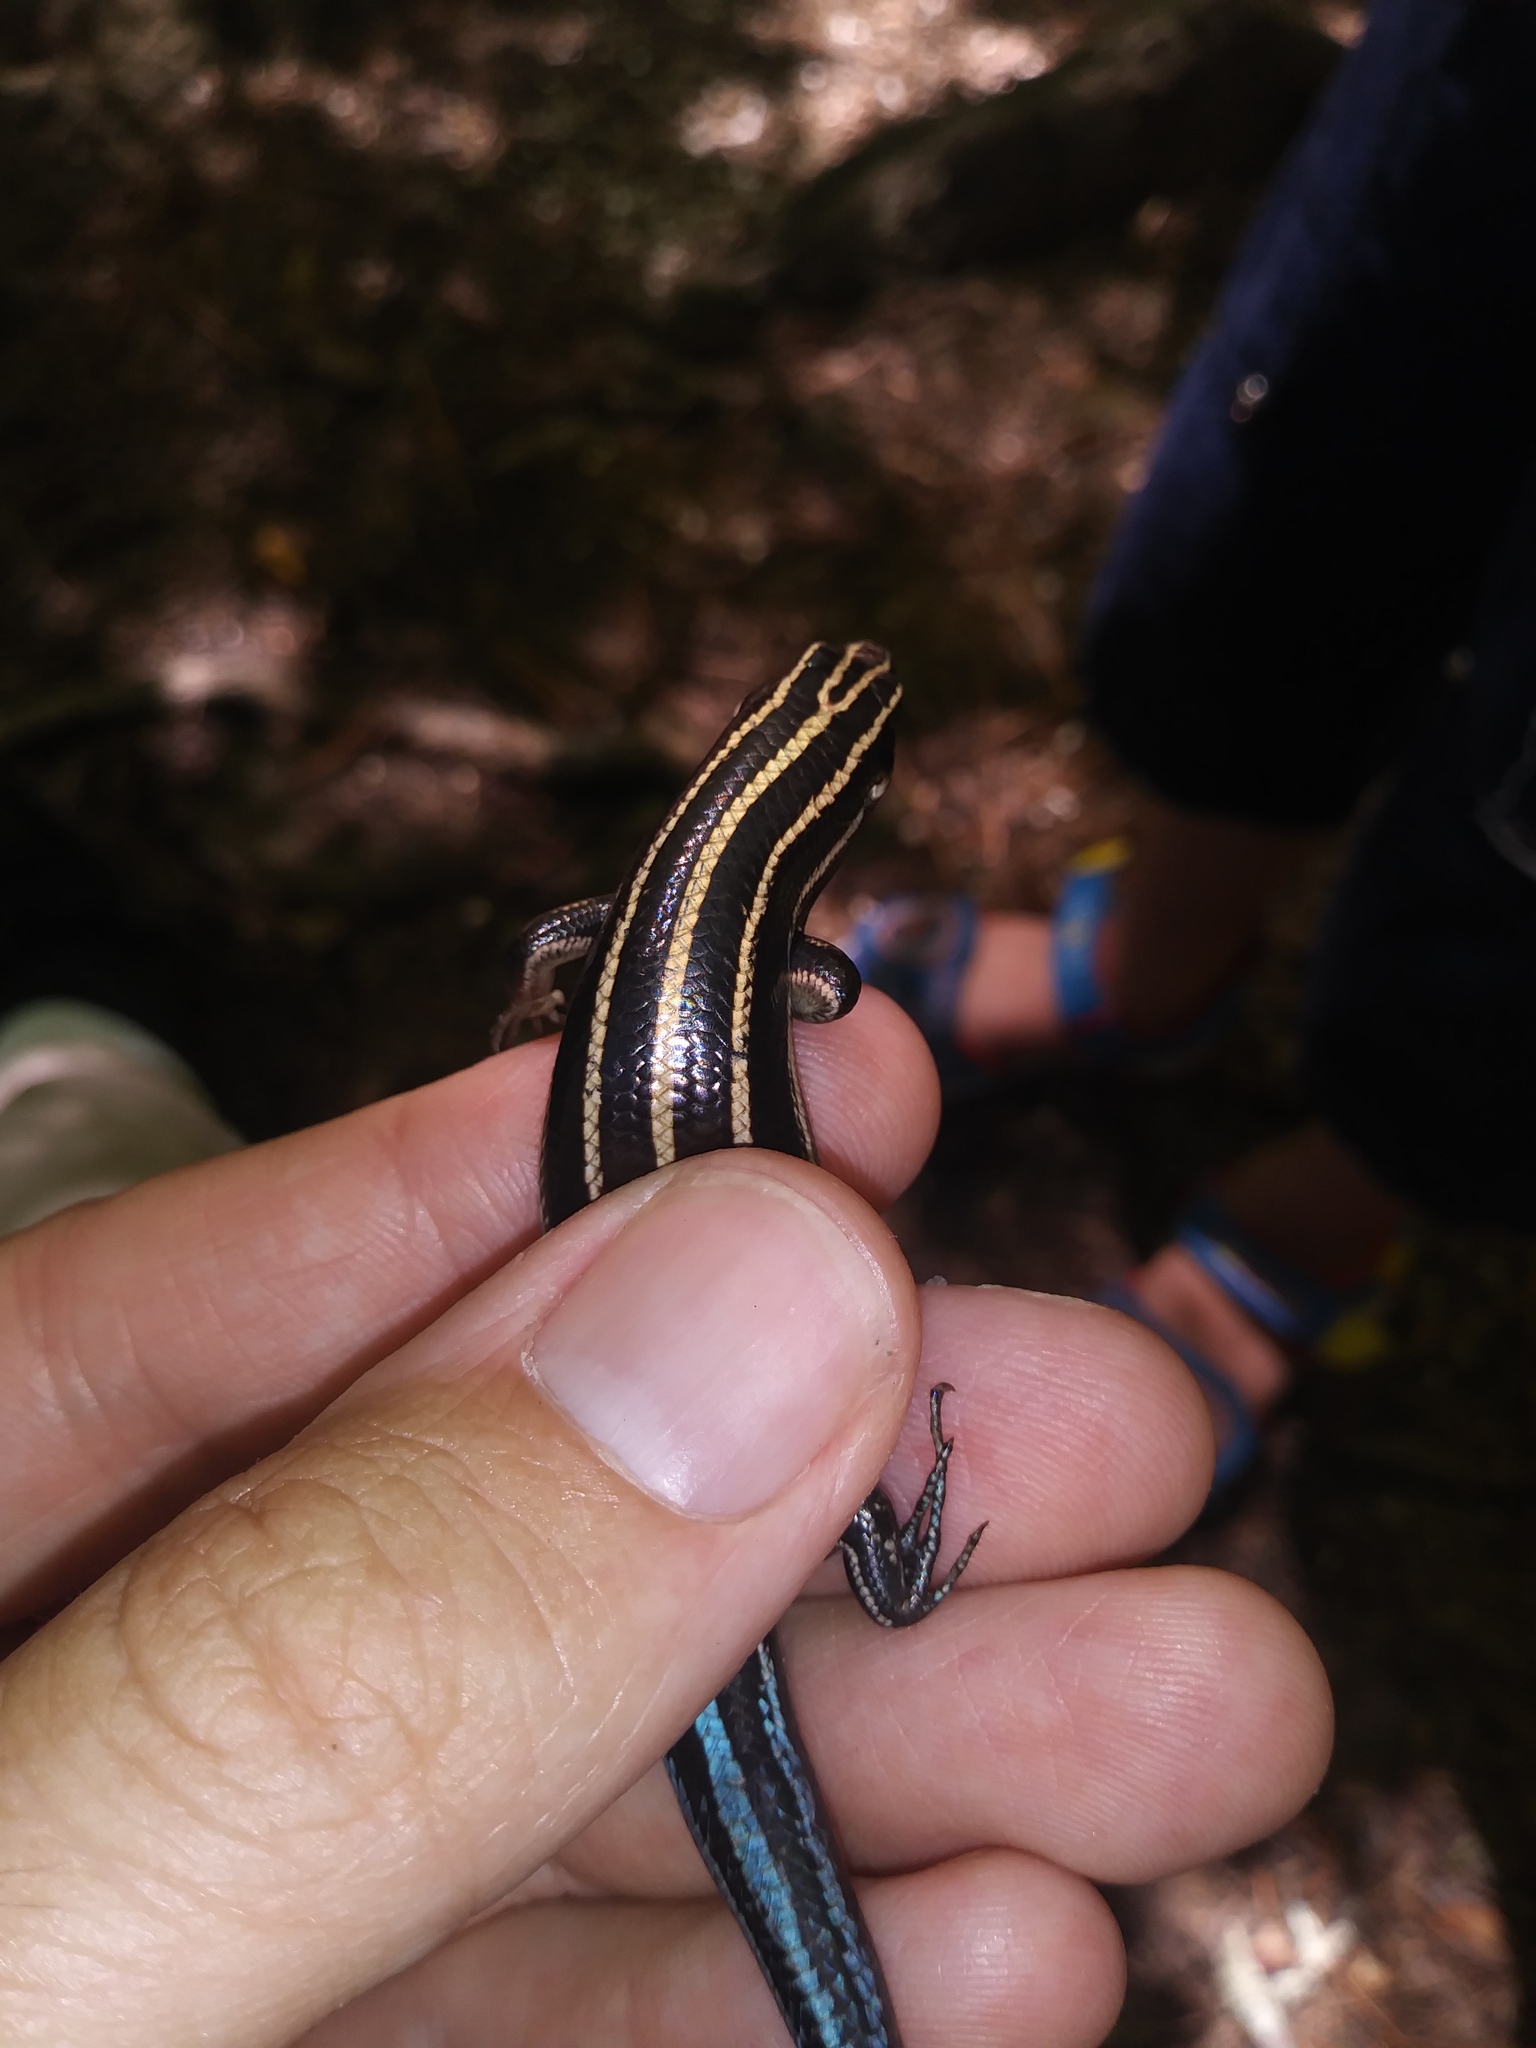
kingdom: Animalia
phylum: Chordata
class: Squamata
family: Scincidae
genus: Plestiodon
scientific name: Plestiodon fasciatus
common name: Five-lined skink
